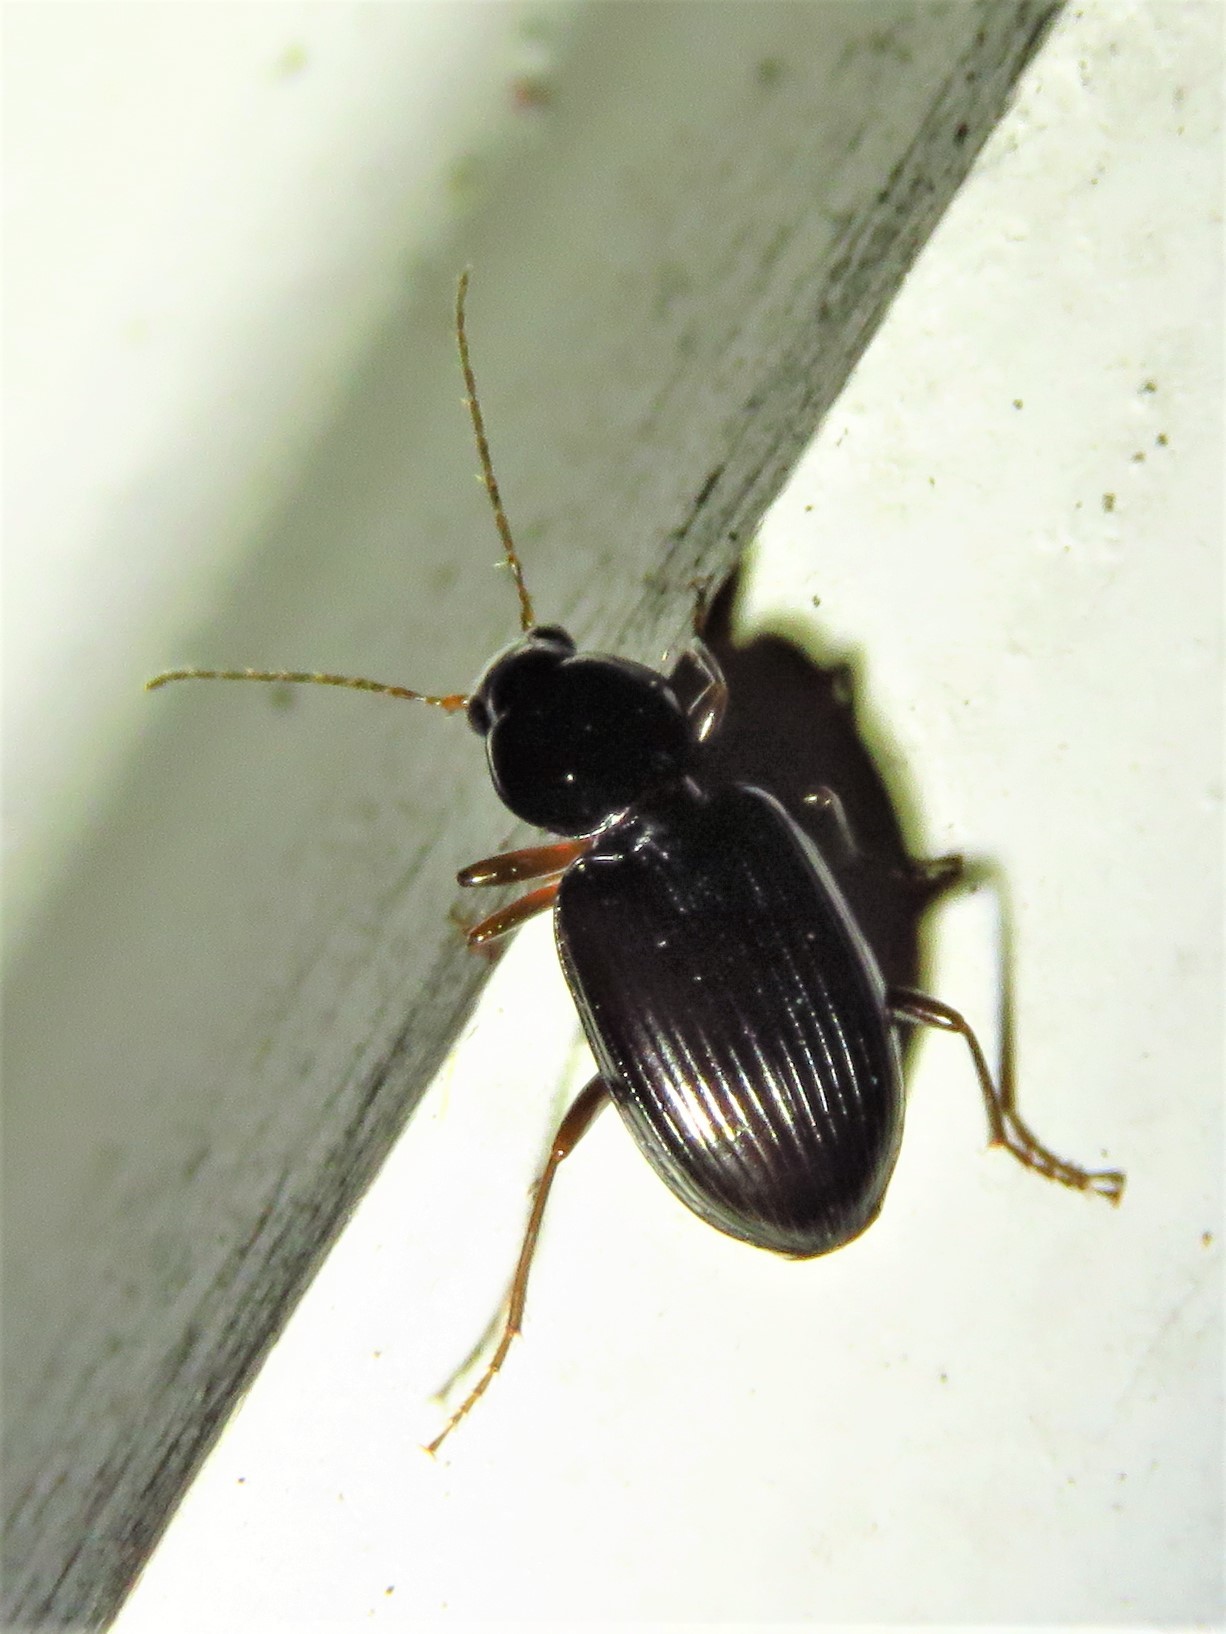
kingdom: Animalia
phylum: Arthropoda
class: Insecta
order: Coleoptera
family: Carabidae
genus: Agonum
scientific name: Agonum punctiforme
